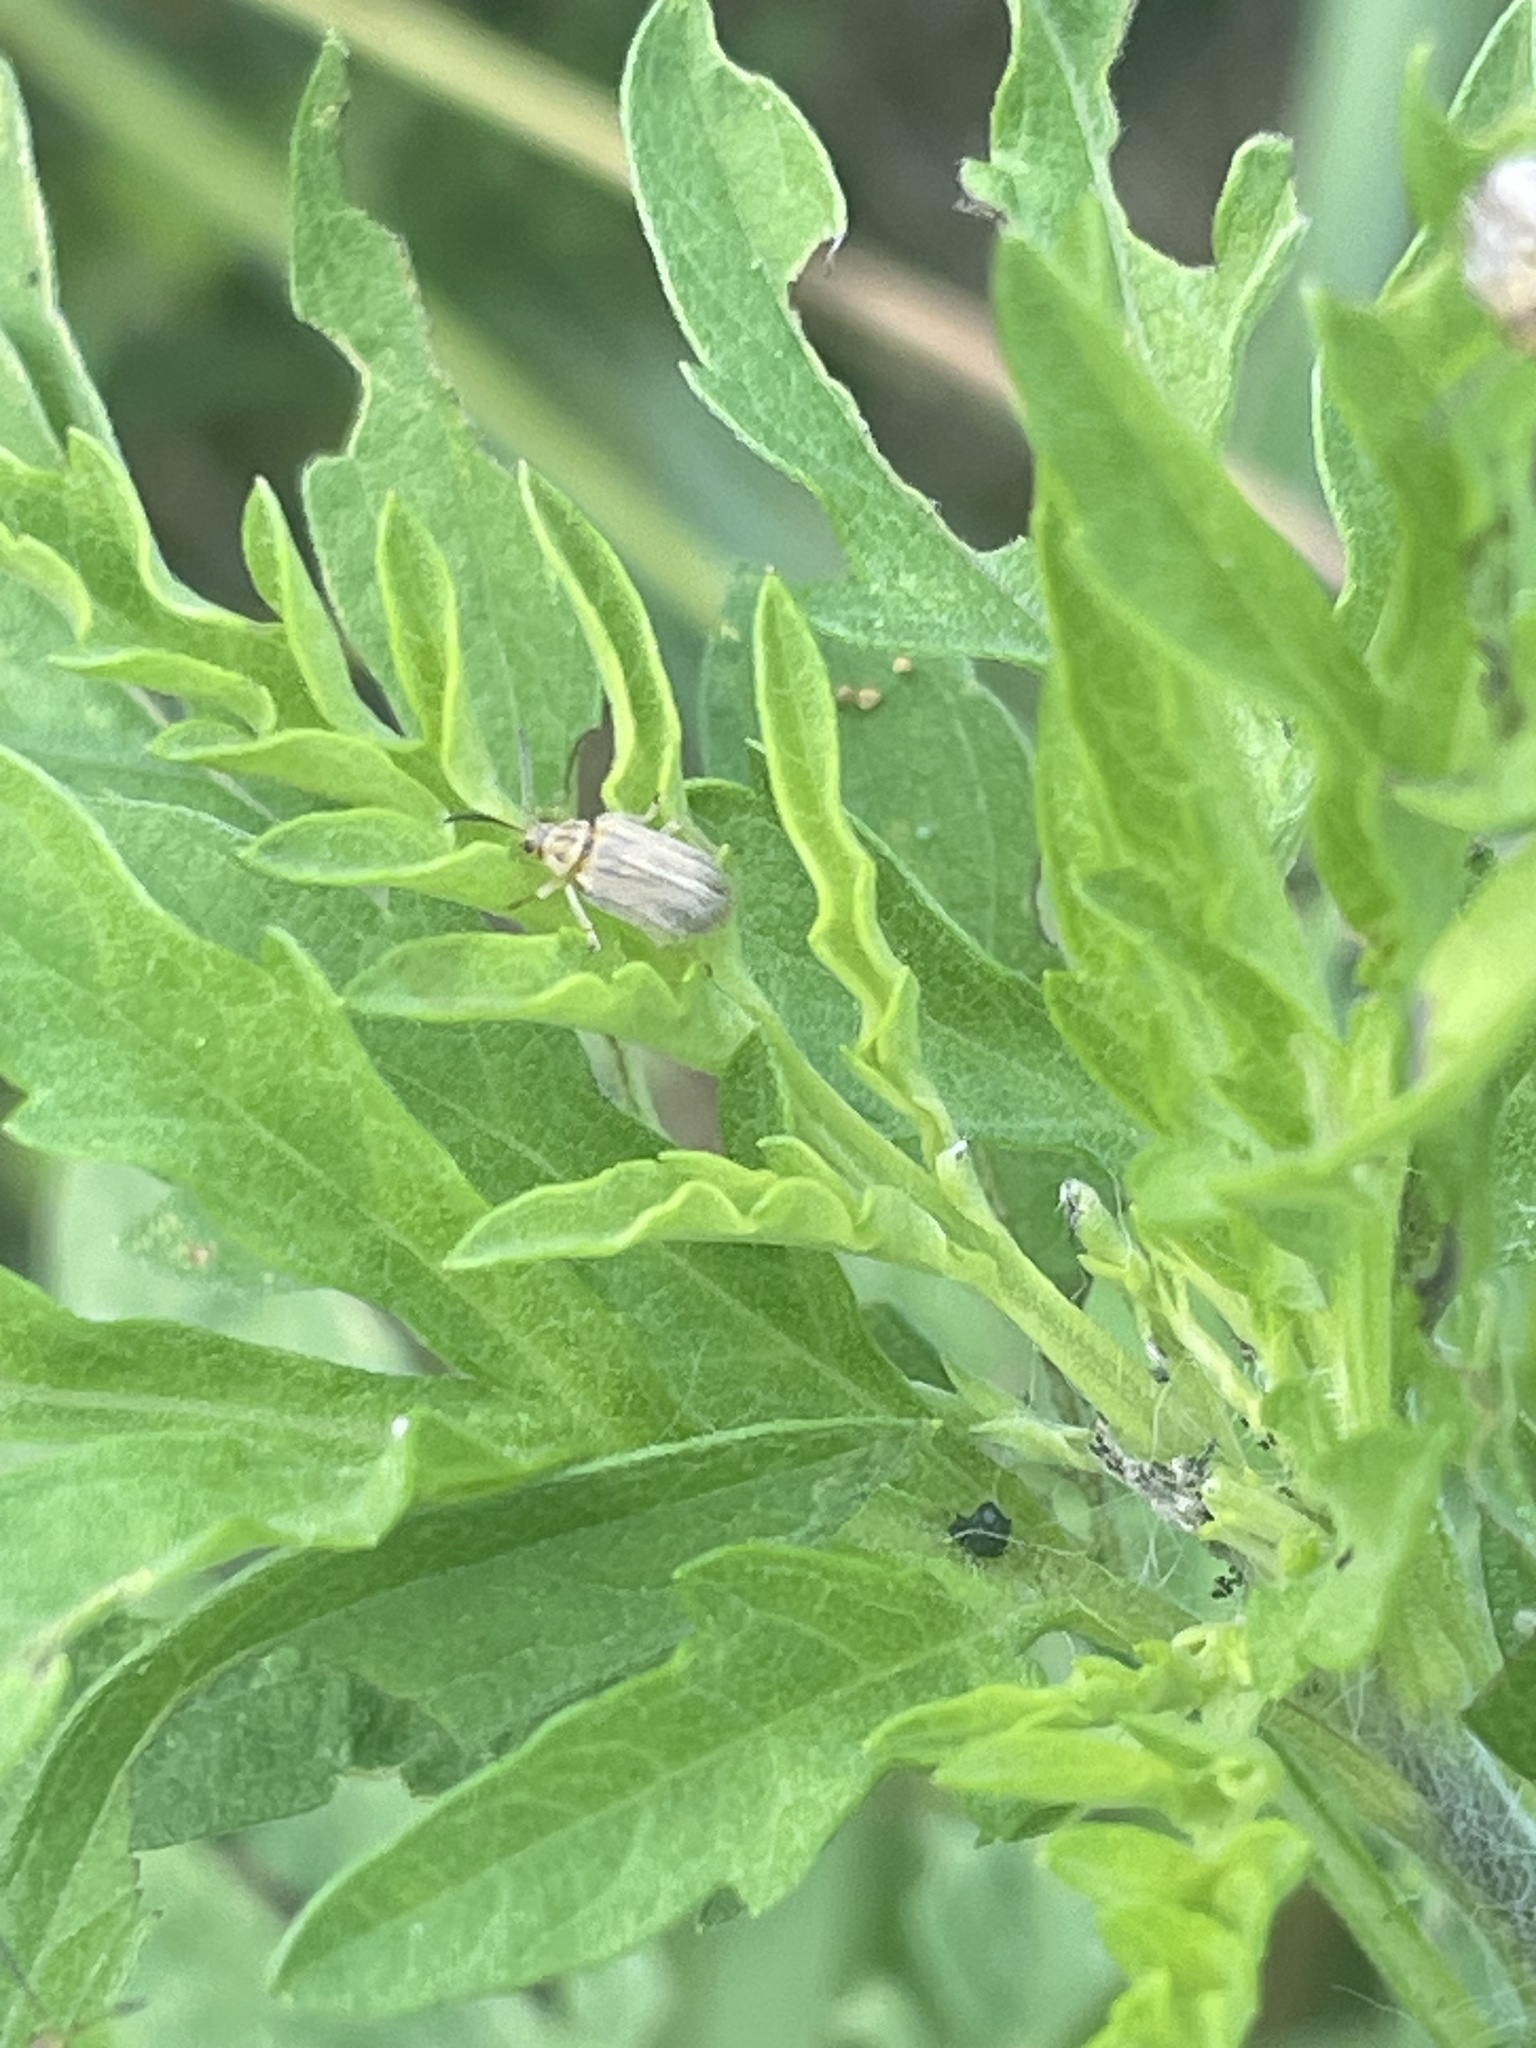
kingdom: Animalia
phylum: Arthropoda
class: Insecta
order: Coleoptera
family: Chrysomelidae
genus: Ophraella
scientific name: Ophraella communa
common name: Ragweed leaf beetle
